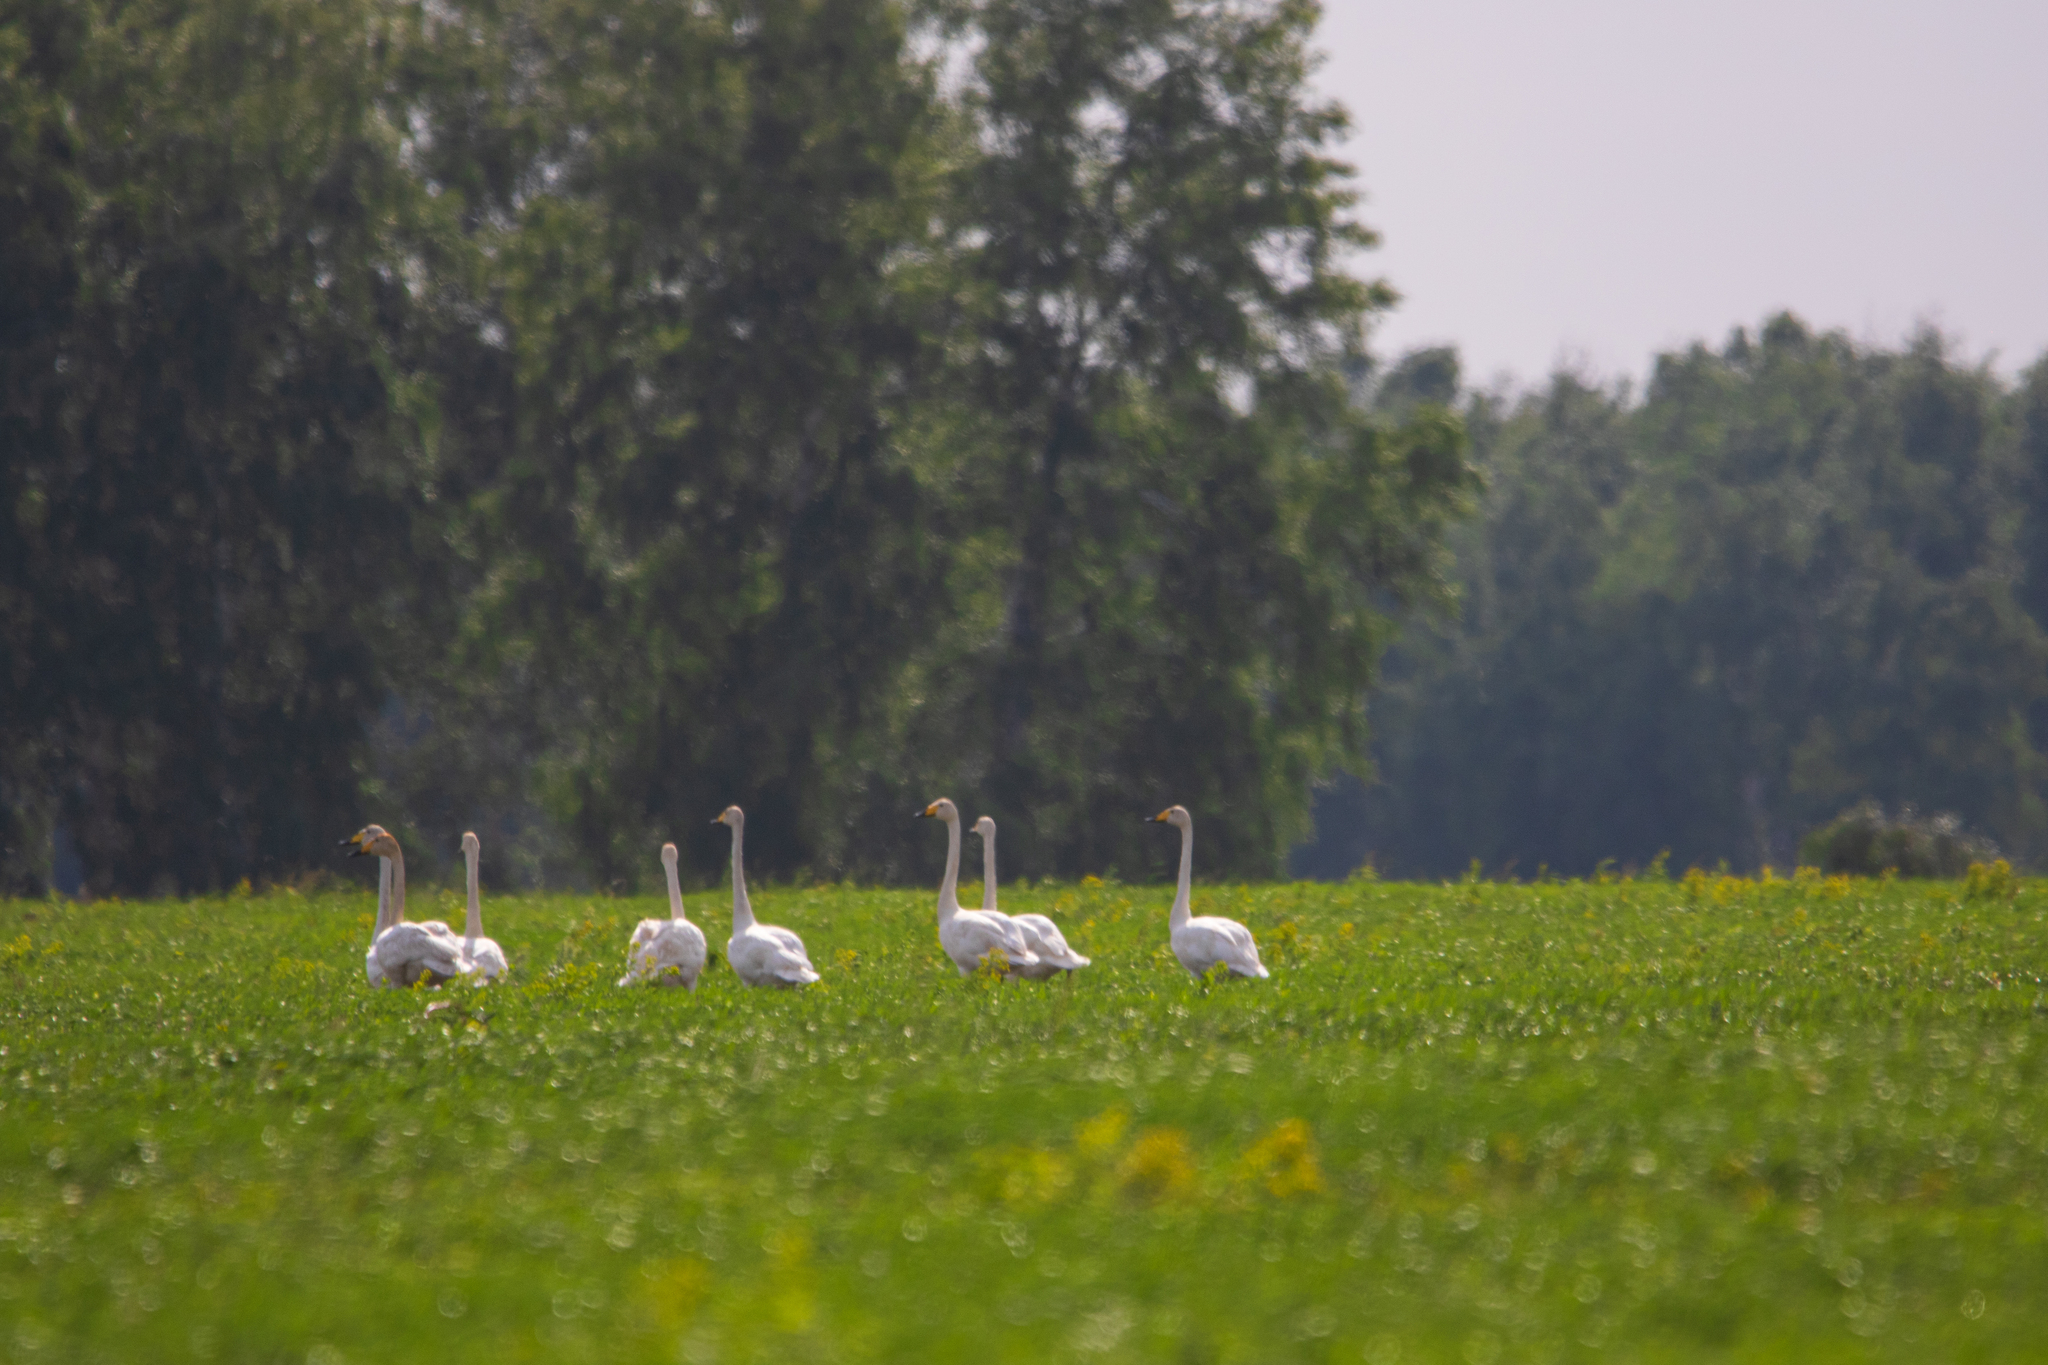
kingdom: Animalia
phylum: Chordata
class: Aves
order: Anseriformes
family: Anatidae
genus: Cygnus
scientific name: Cygnus cygnus
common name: Whooper swan
